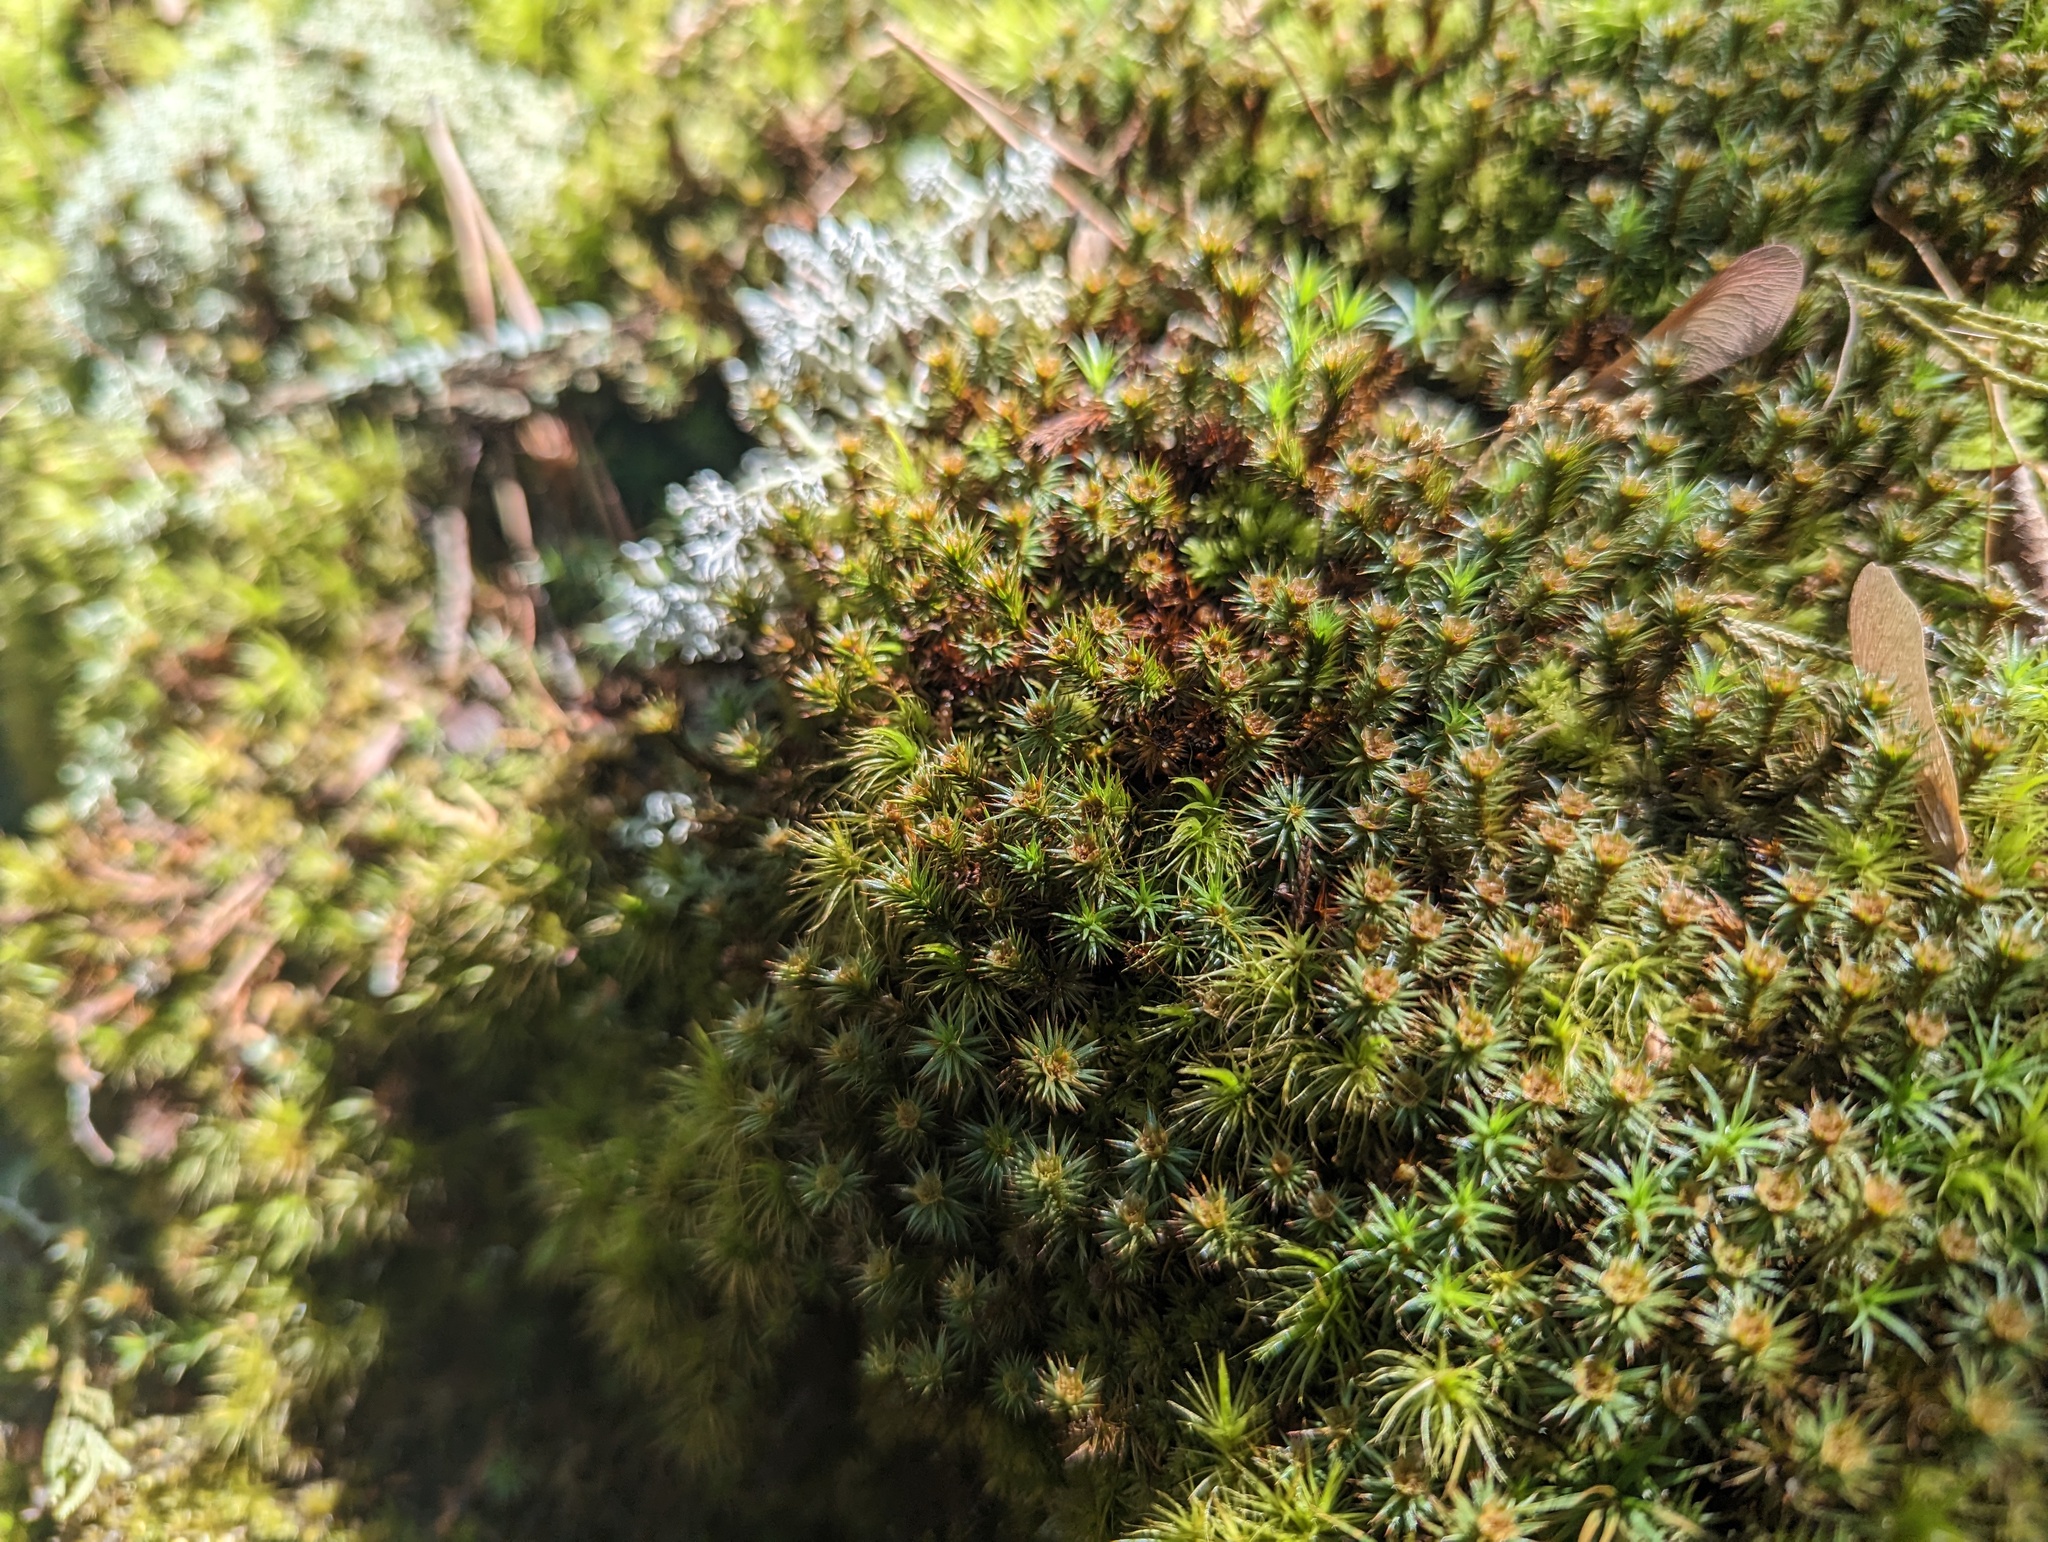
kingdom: Plantae
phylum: Bryophyta
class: Polytrichopsida
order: Polytrichales
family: Polytrichaceae
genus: Polytrichum
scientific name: Polytrichum juniperinum
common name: Juniper haircap moss
